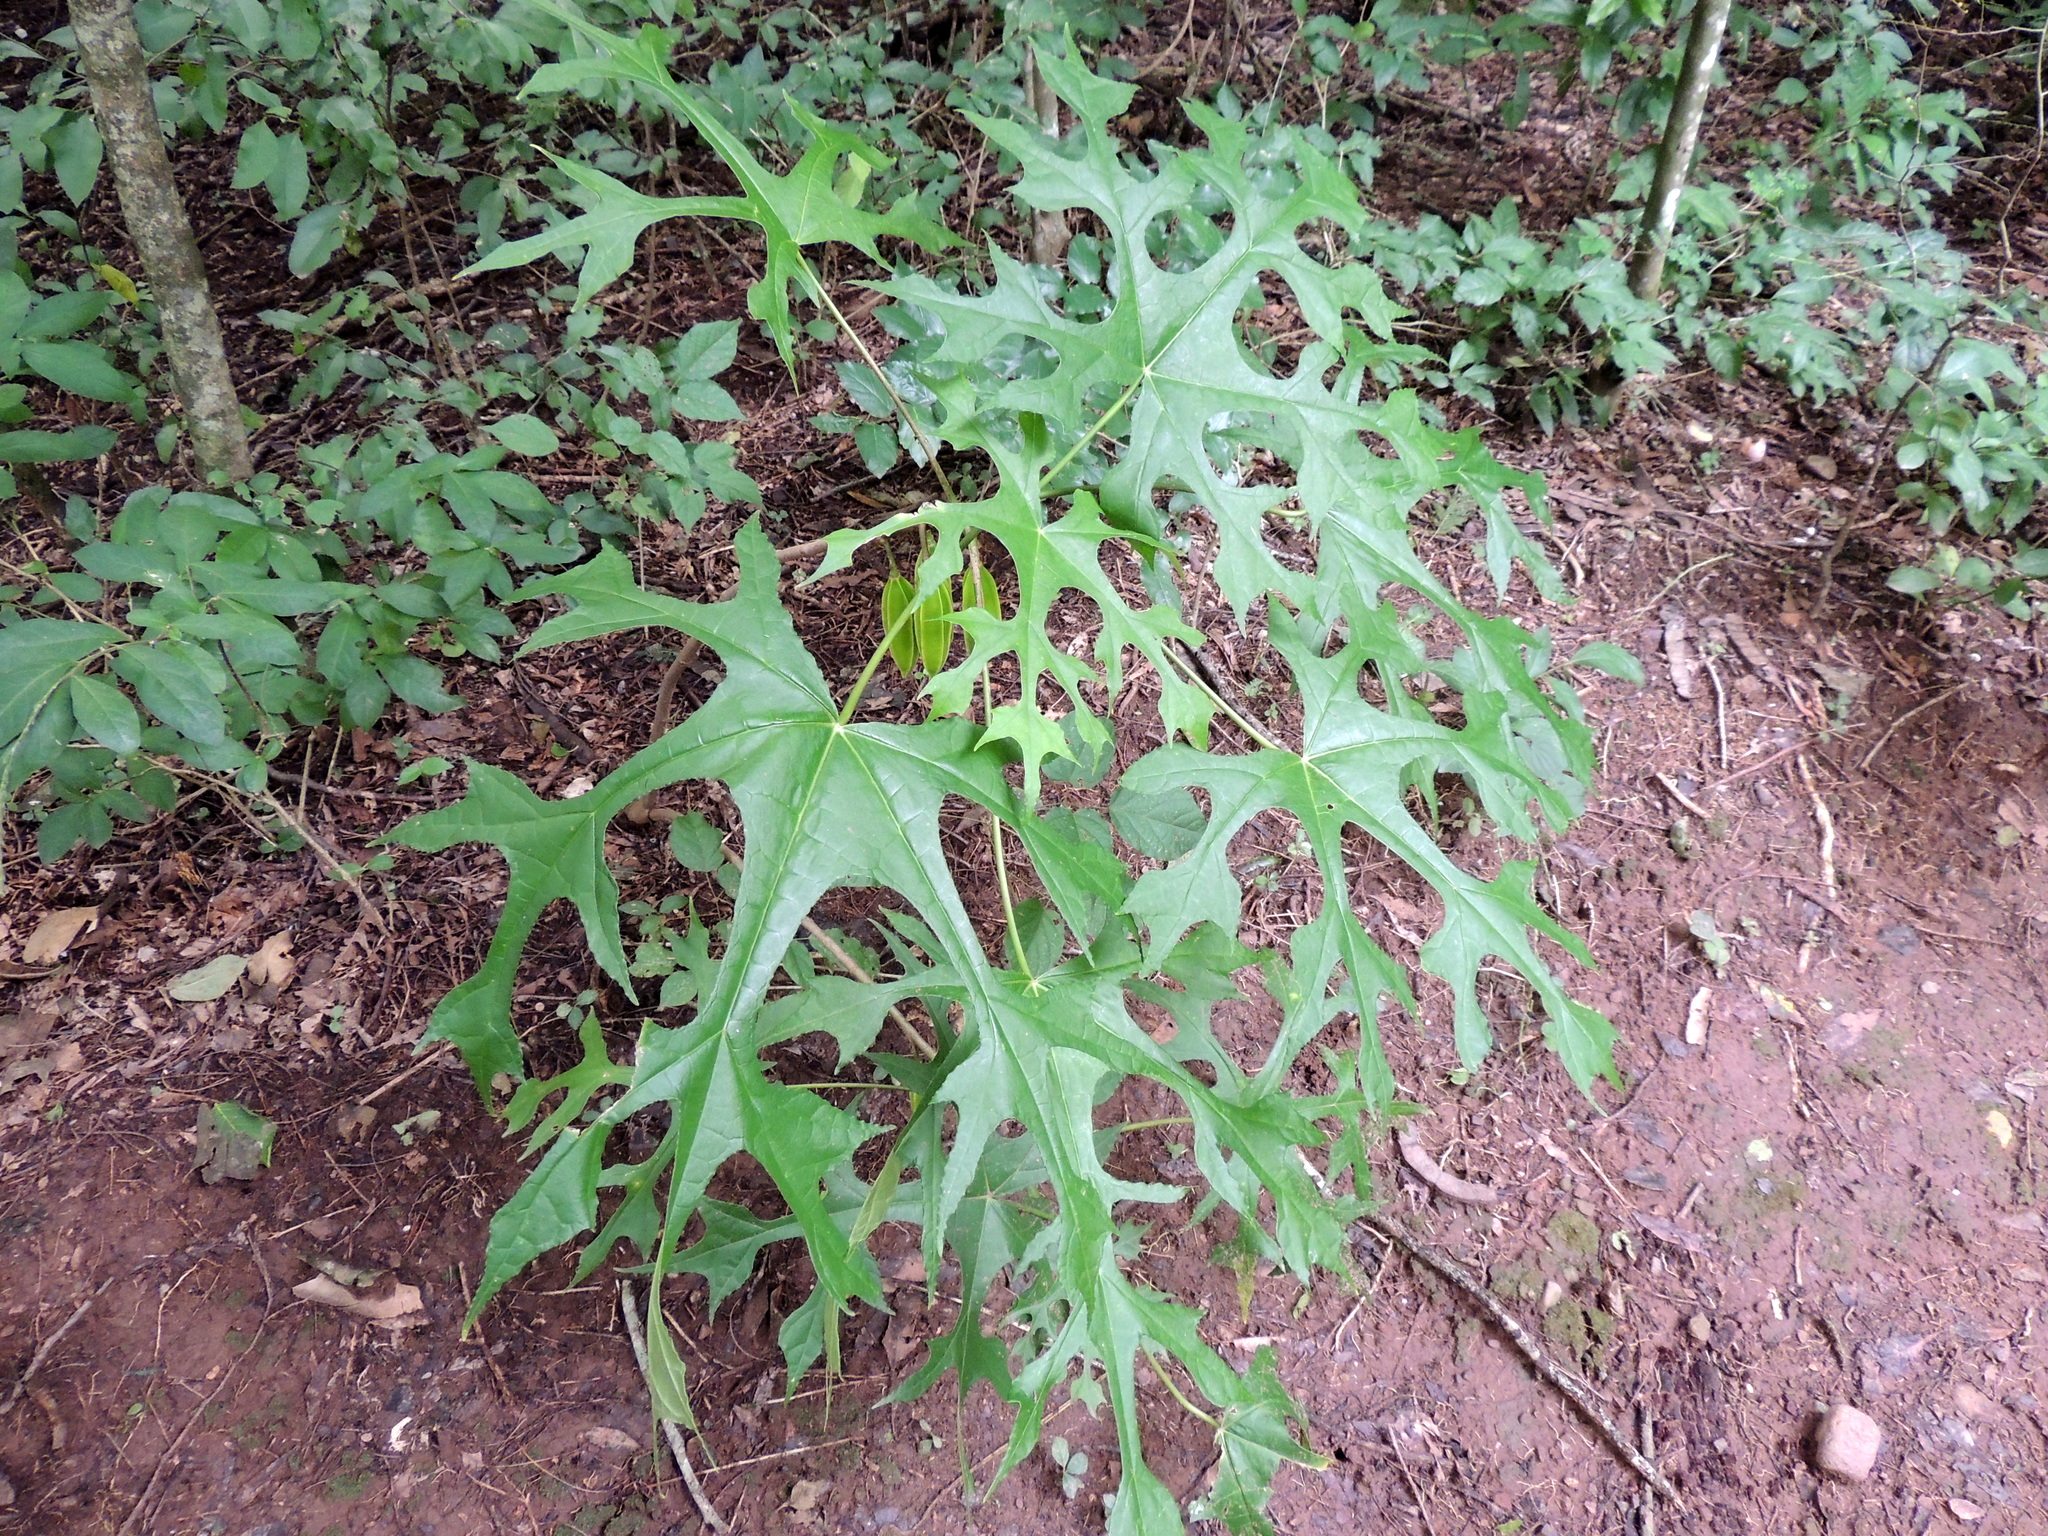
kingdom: Plantae
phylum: Tracheophyta
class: Magnoliopsida
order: Brassicales
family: Caricaceae
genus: Vasconcellea
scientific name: Vasconcellea glandulosa
